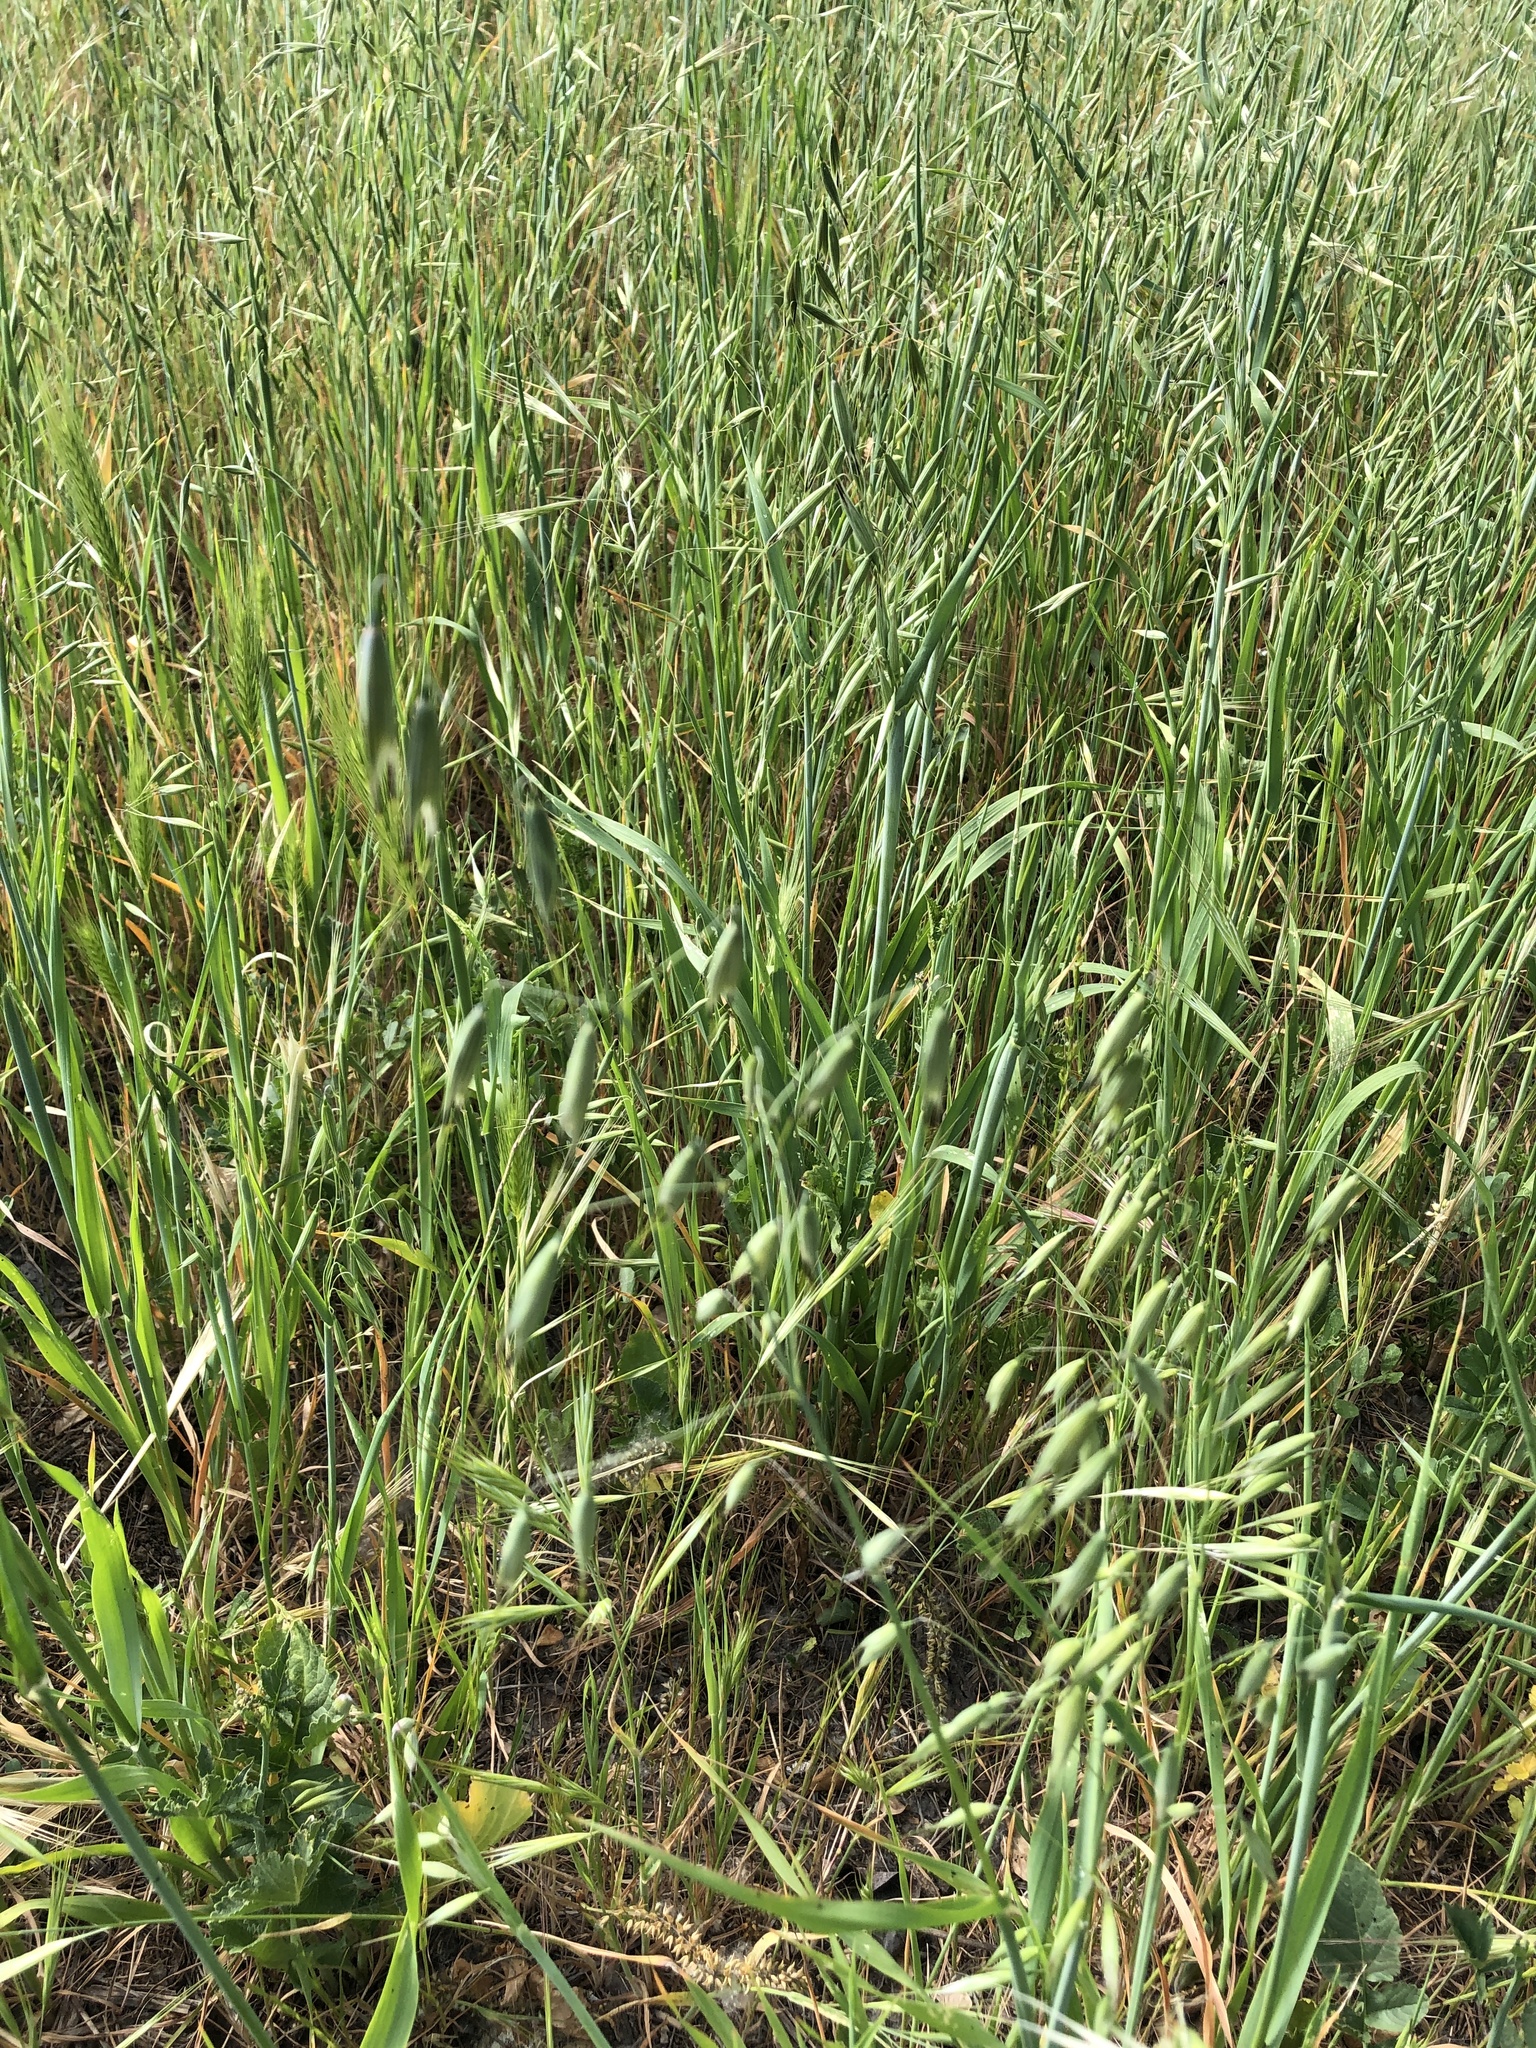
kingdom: Plantae
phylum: Tracheophyta
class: Liliopsida
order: Poales
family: Poaceae
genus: Avena
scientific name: Avena fatua
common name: Wild oat
